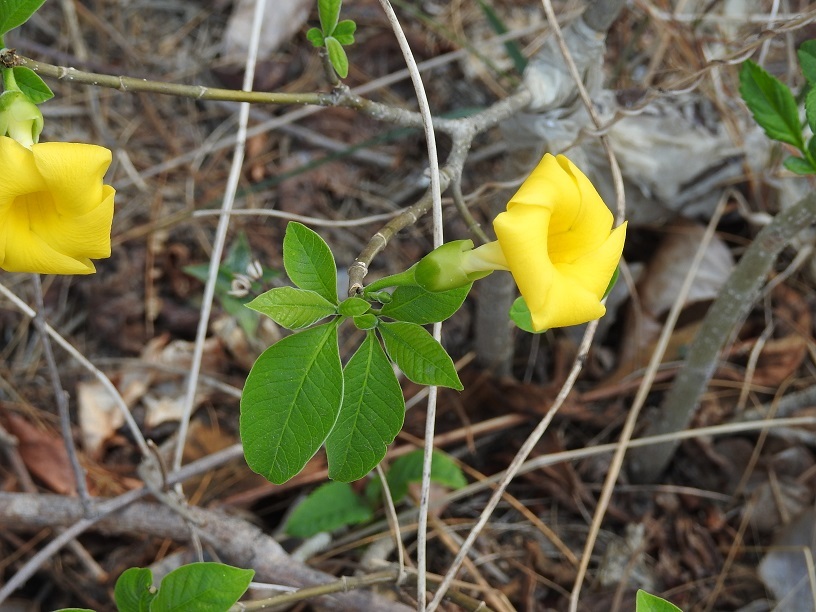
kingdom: Plantae
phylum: Tracheophyta
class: Magnoliopsida
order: Gentianales
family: Apocynaceae
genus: Tabernaemontana
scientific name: Tabernaemontana glabra
